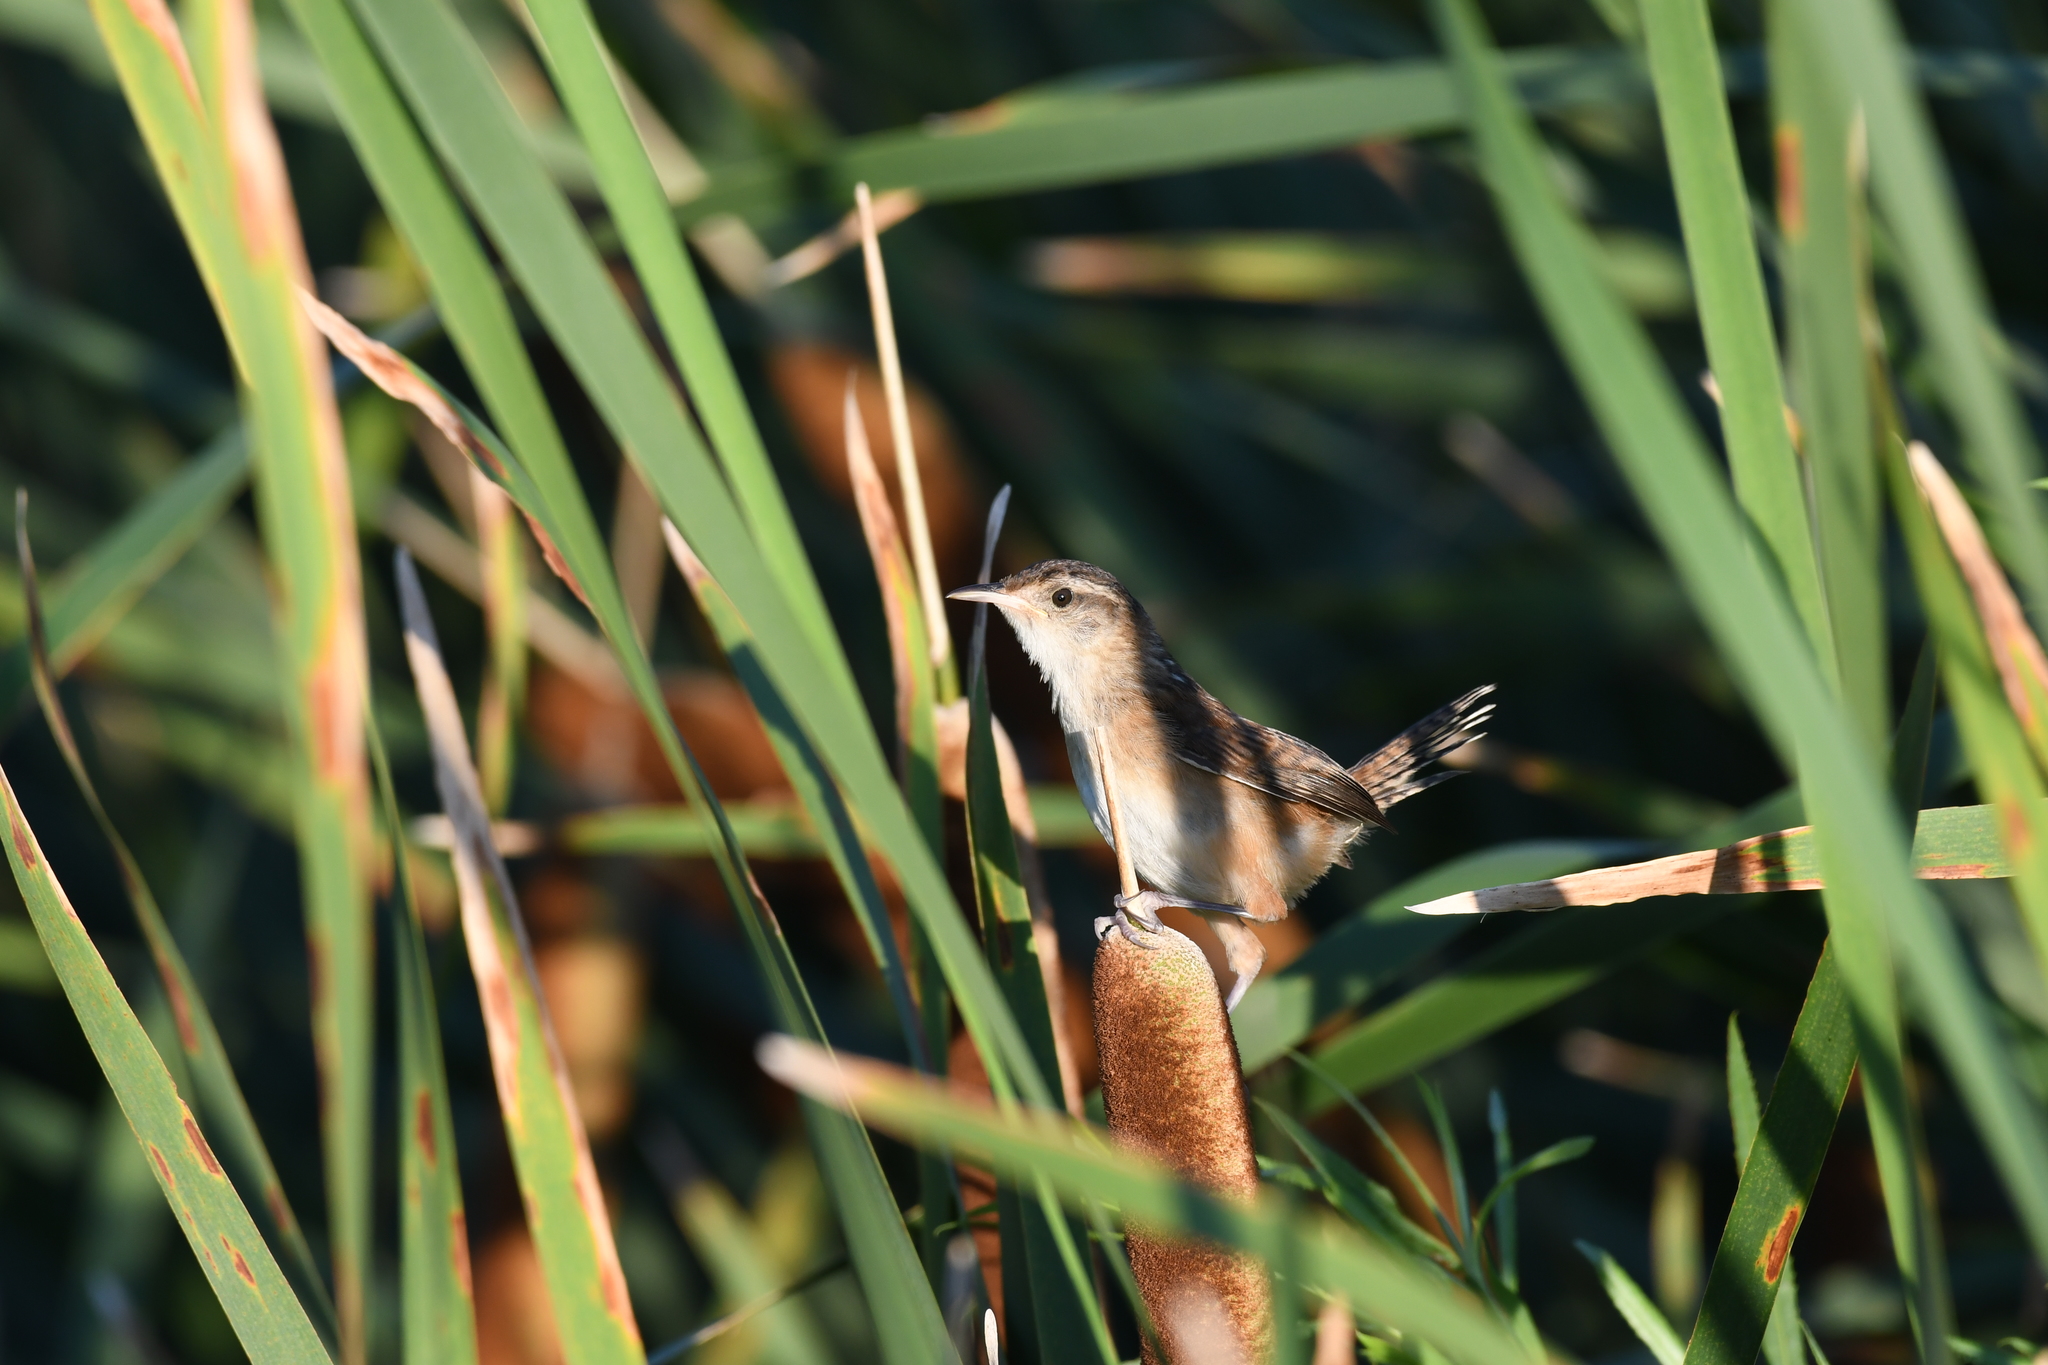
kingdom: Animalia
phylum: Chordata
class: Aves
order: Passeriformes
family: Troglodytidae
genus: Cistothorus
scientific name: Cistothorus palustris
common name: Marsh wren
